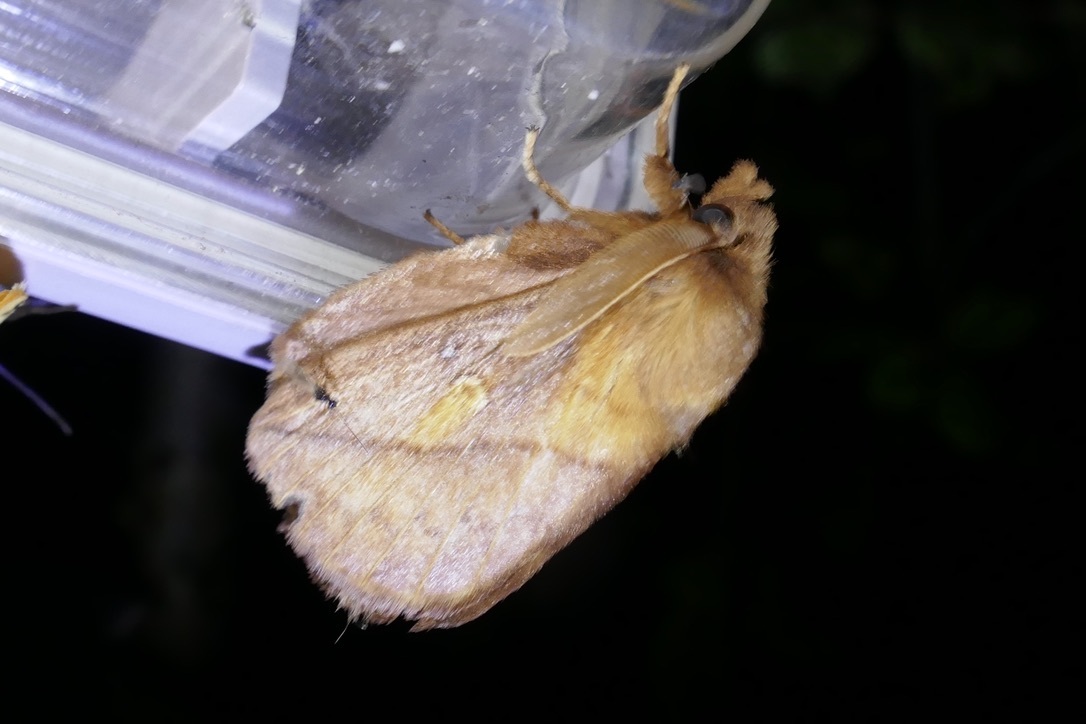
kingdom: Animalia
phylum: Arthropoda
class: Insecta
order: Lepidoptera
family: Lasiocampidae
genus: Euthrix
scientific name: Euthrix potatoria
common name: Drinker
